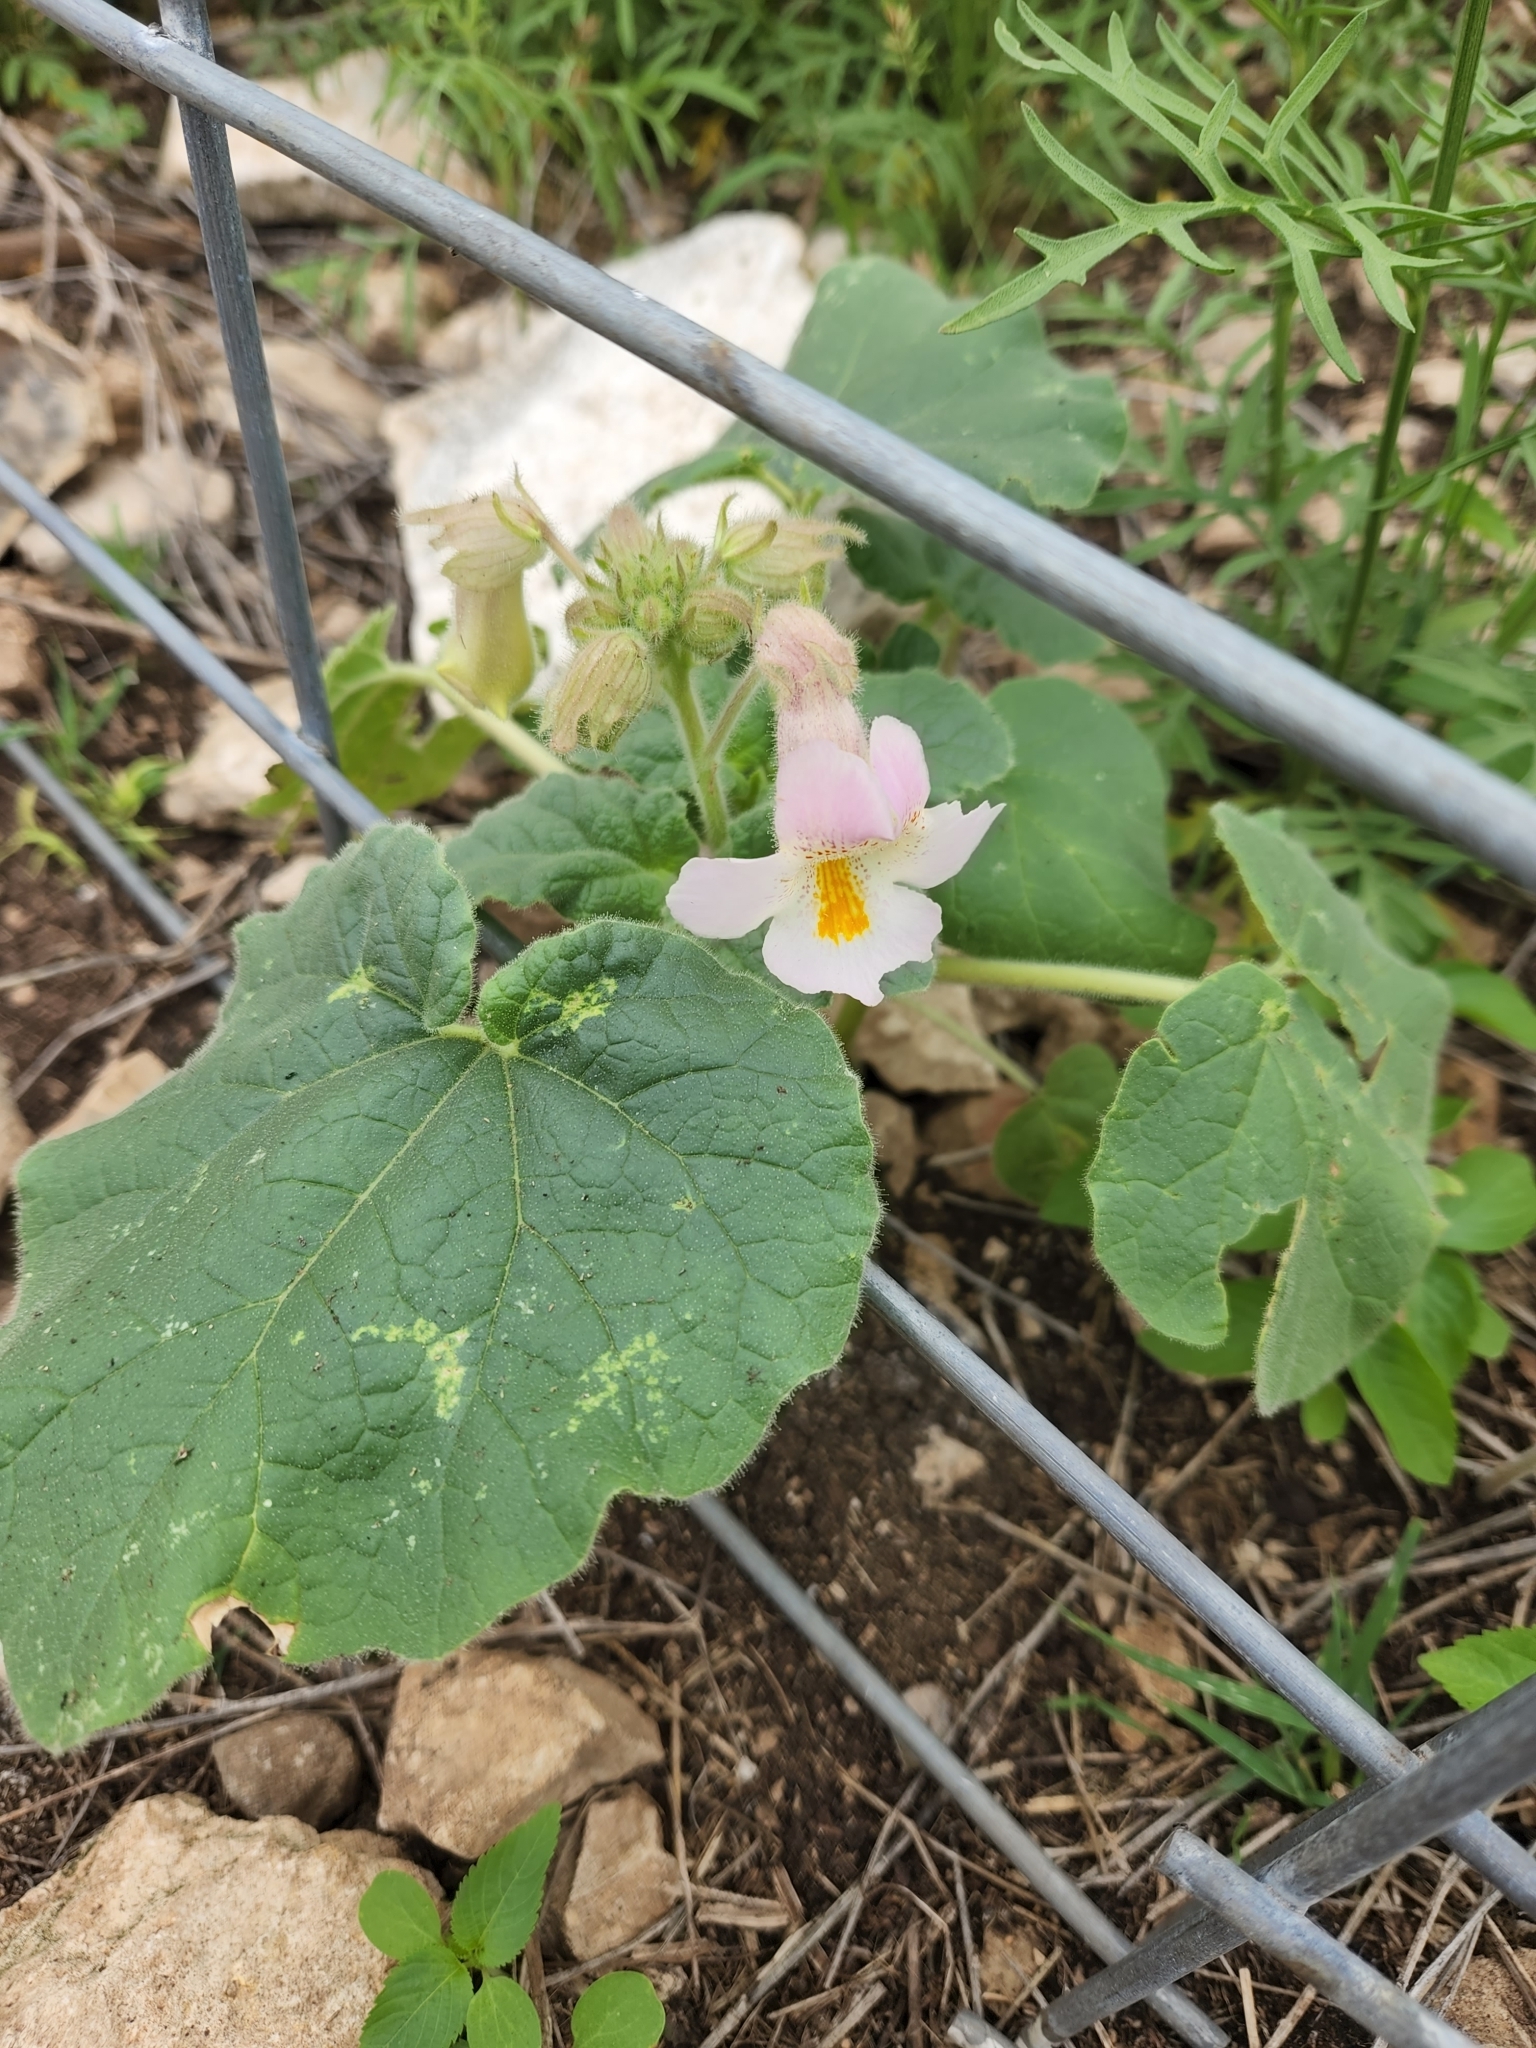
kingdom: Plantae
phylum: Tracheophyta
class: Magnoliopsida
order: Lamiales
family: Martyniaceae
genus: Proboscidea
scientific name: Proboscidea louisianica
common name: Elephant tusks
